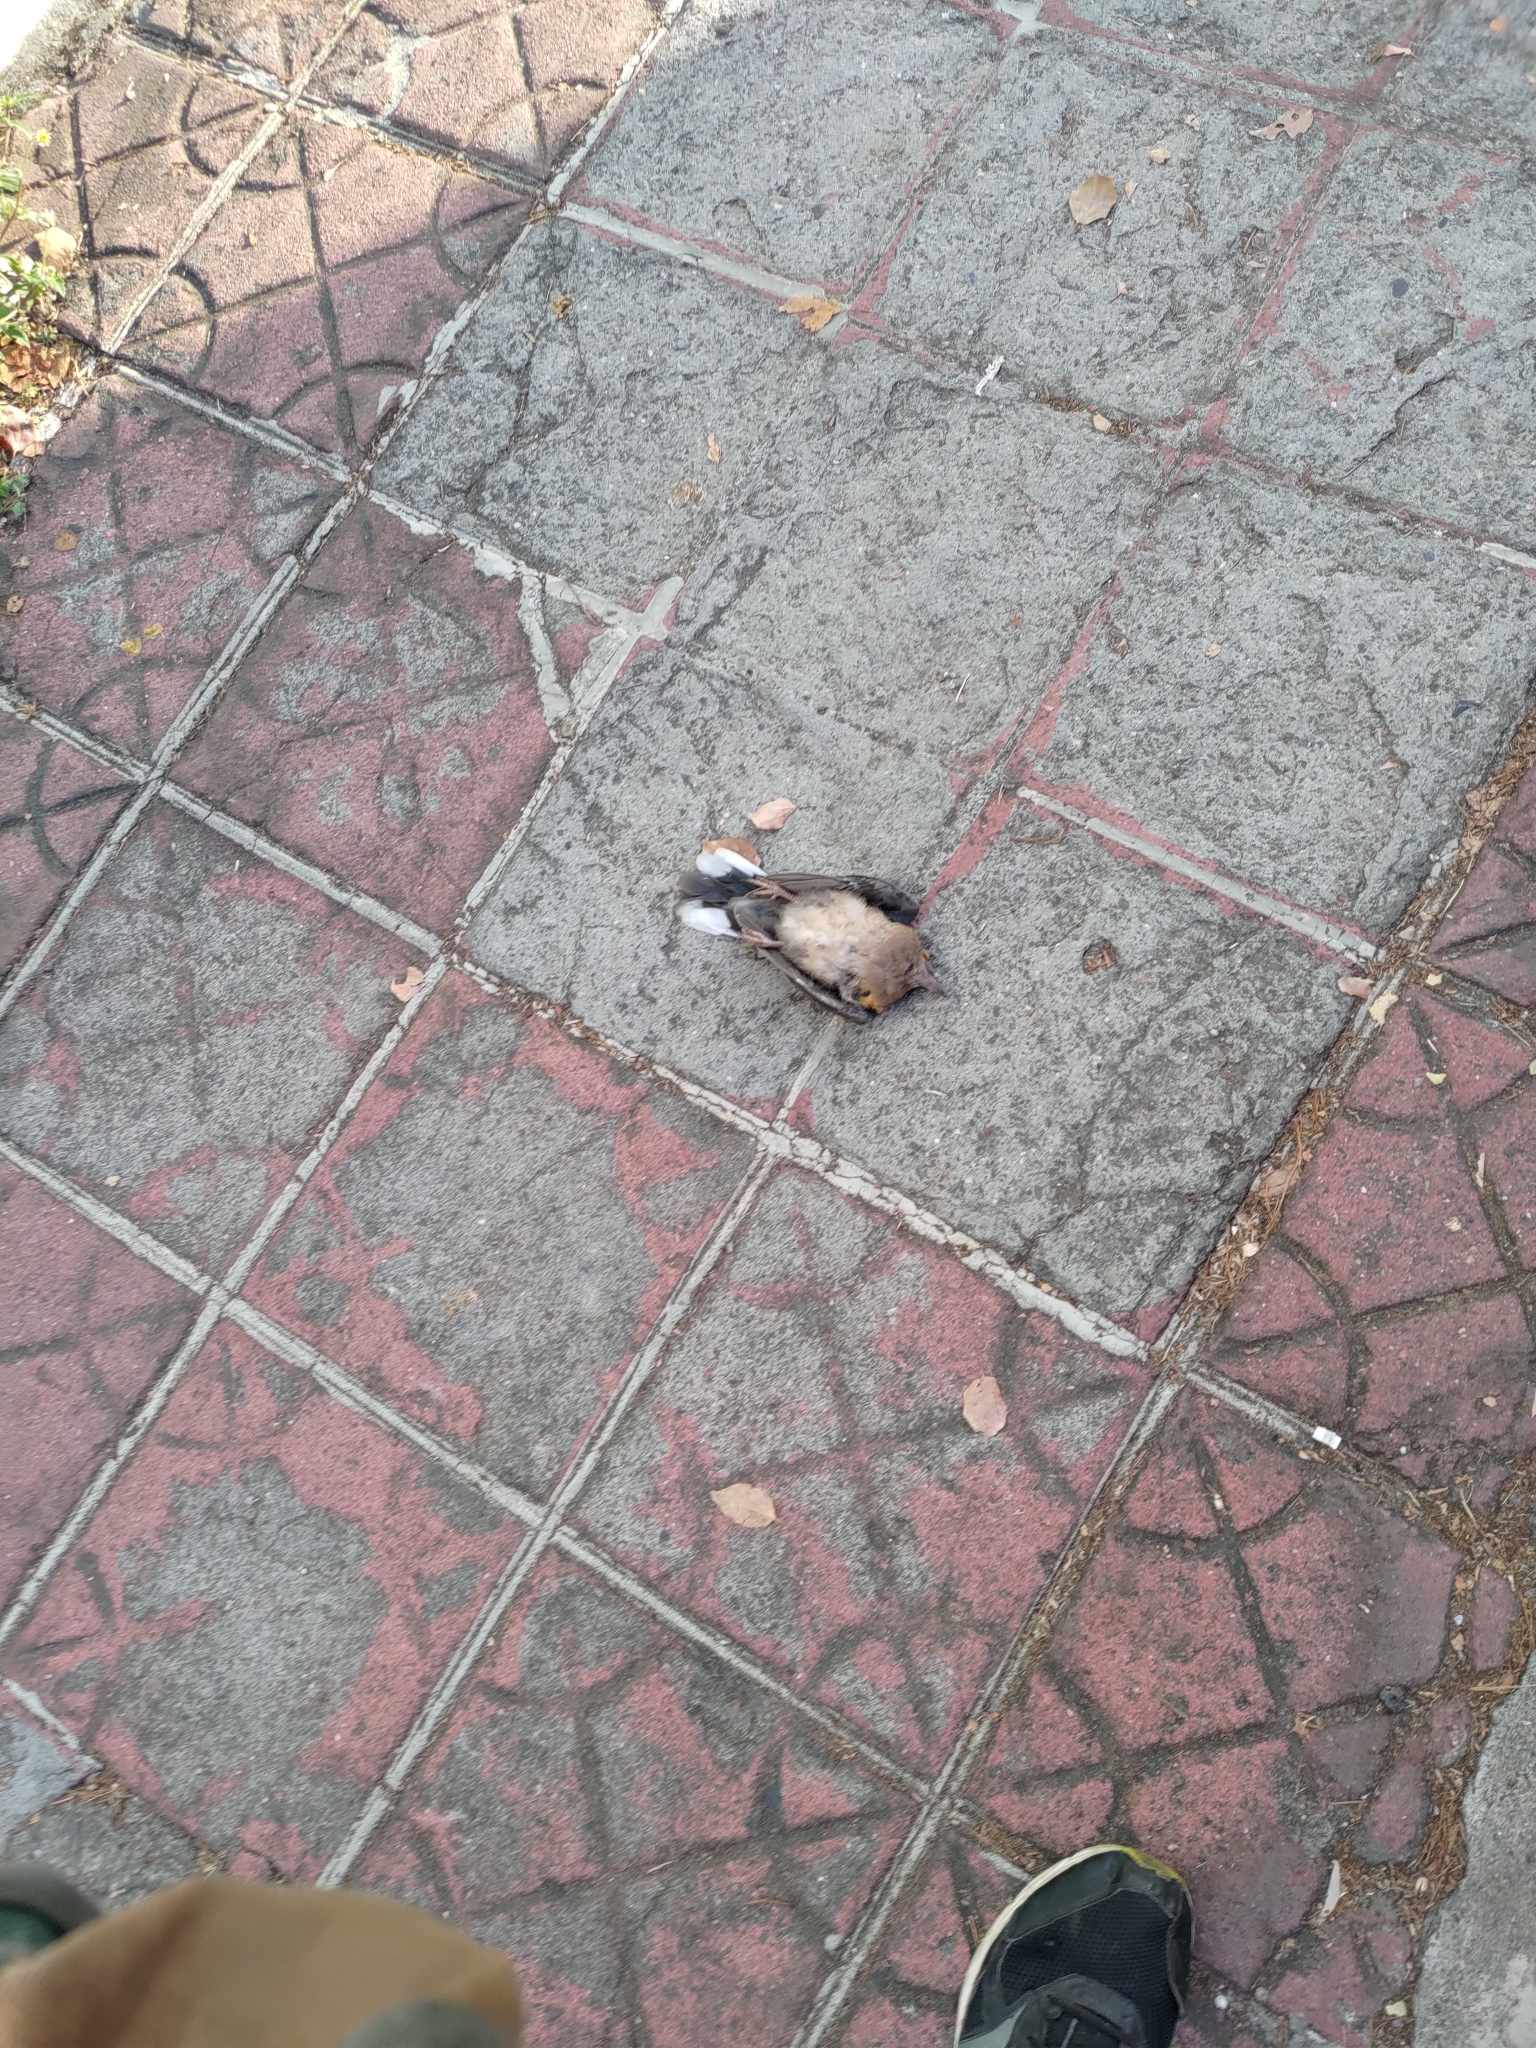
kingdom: Animalia
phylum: Chordata
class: Aves
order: Columbiformes
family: Columbidae
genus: Spilopelia
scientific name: Spilopelia chinensis
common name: Spotted dove
